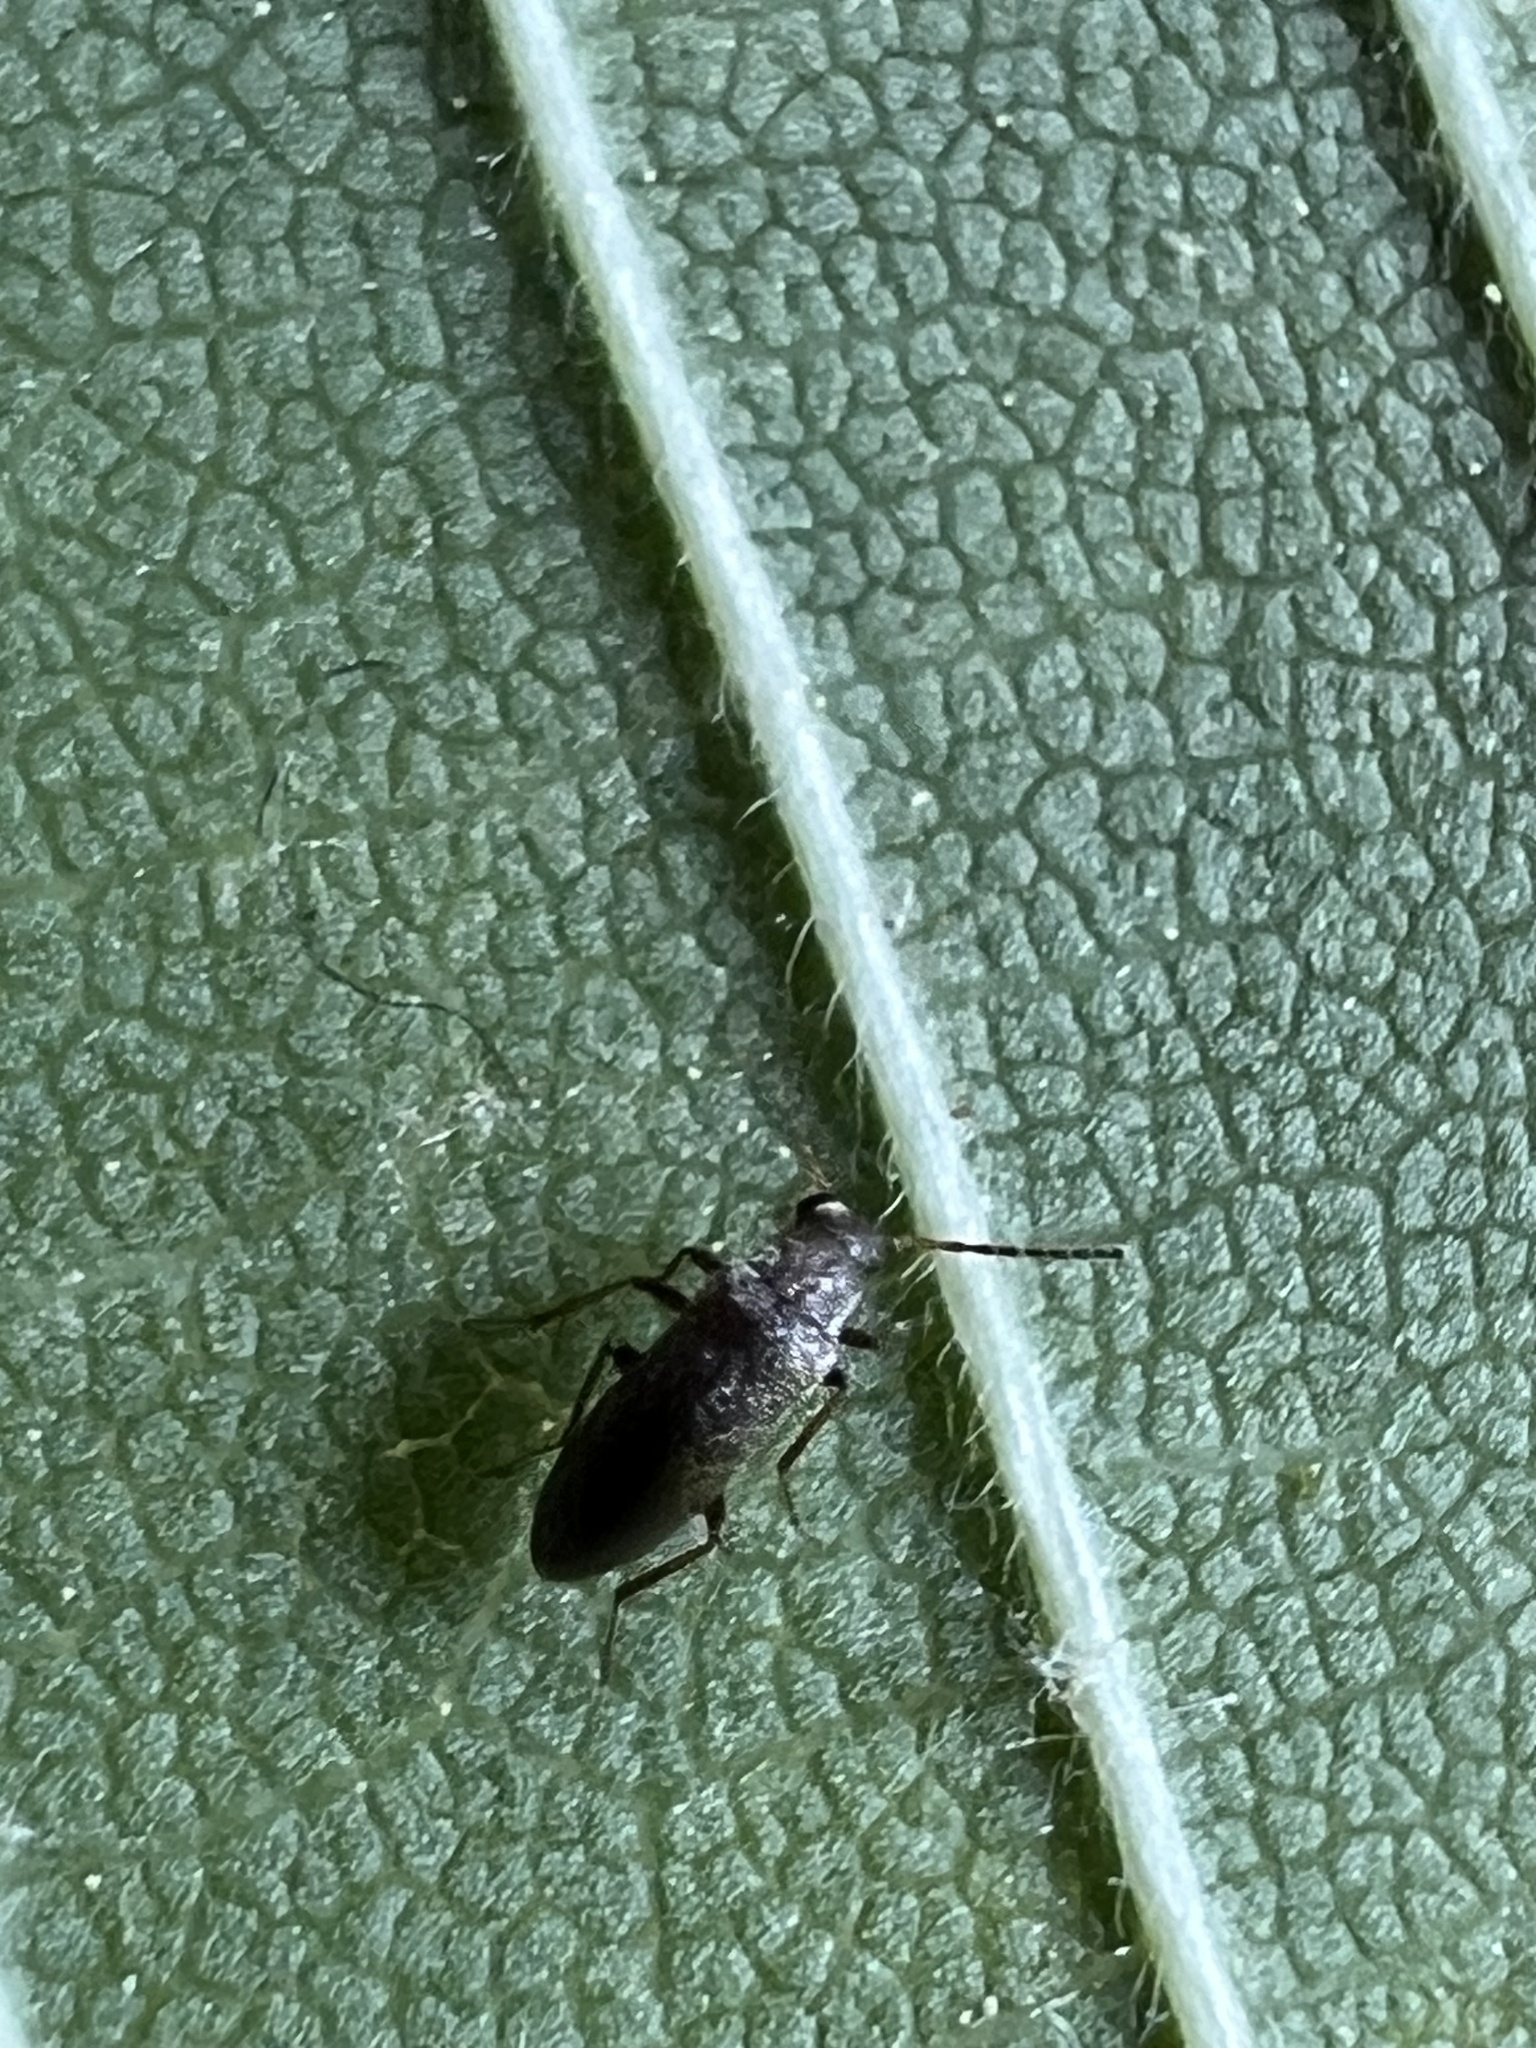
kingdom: Animalia
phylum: Arthropoda
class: Insecta
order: Coleoptera
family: Melandryidae
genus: Microtonus
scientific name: Microtonus sericans
